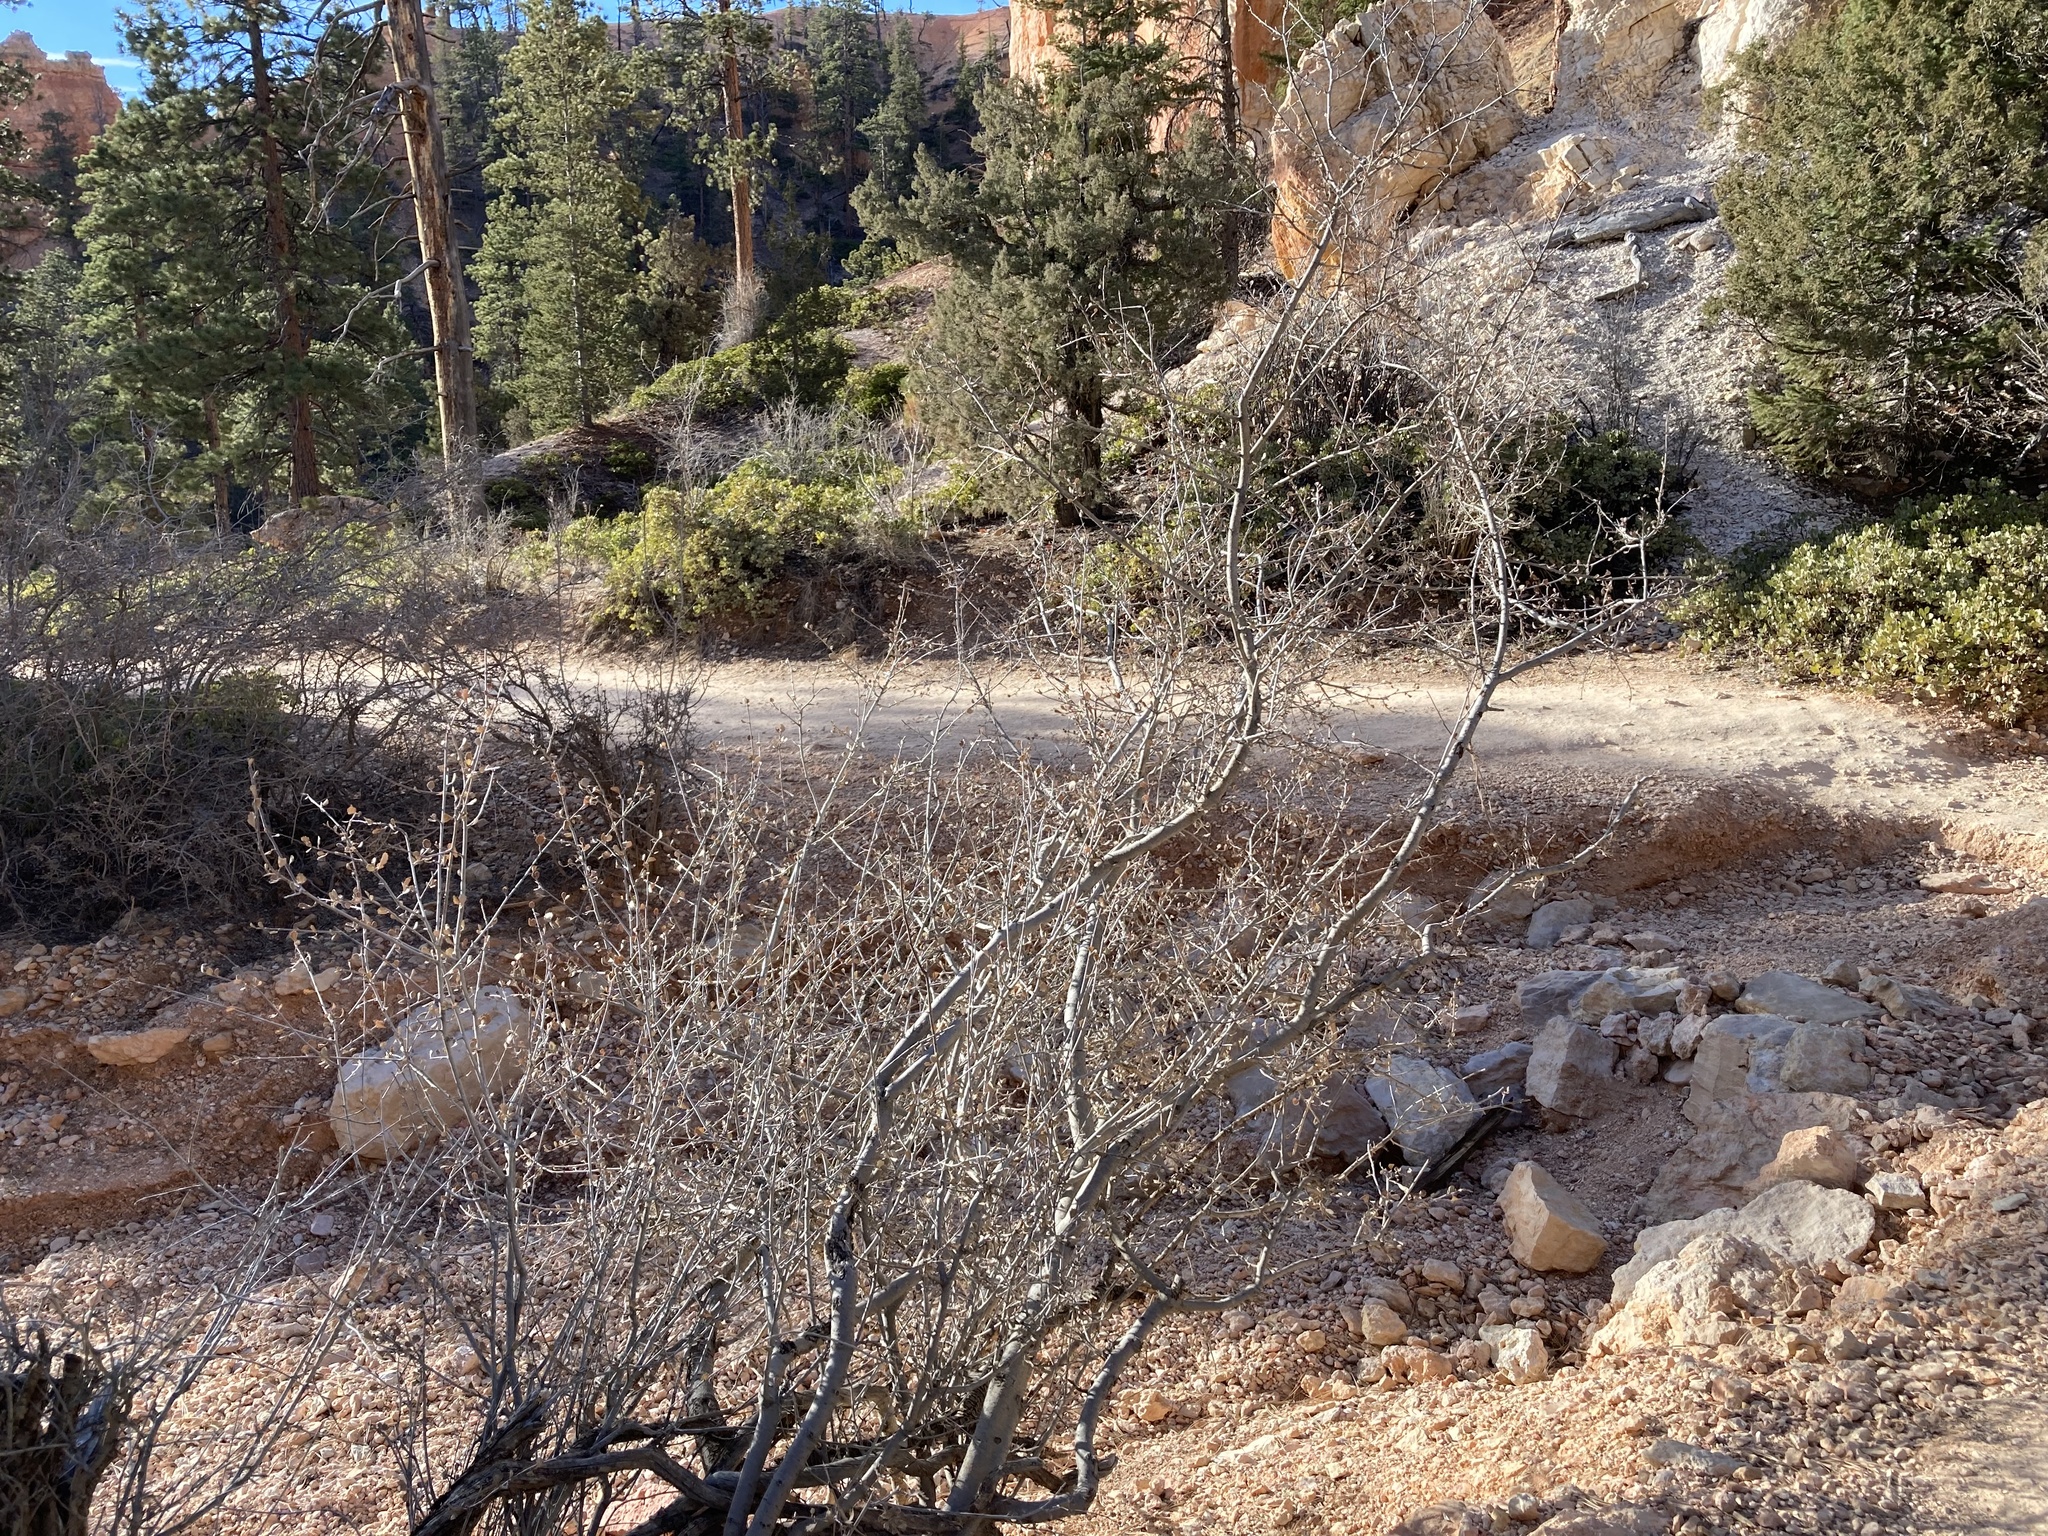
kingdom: Plantae
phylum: Tracheophyta
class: Magnoliopsida
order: Rosales
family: Rosaceae
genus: Cercocarpus
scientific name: Cercocarpus montanus
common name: Alder-leaf cercocarpus
